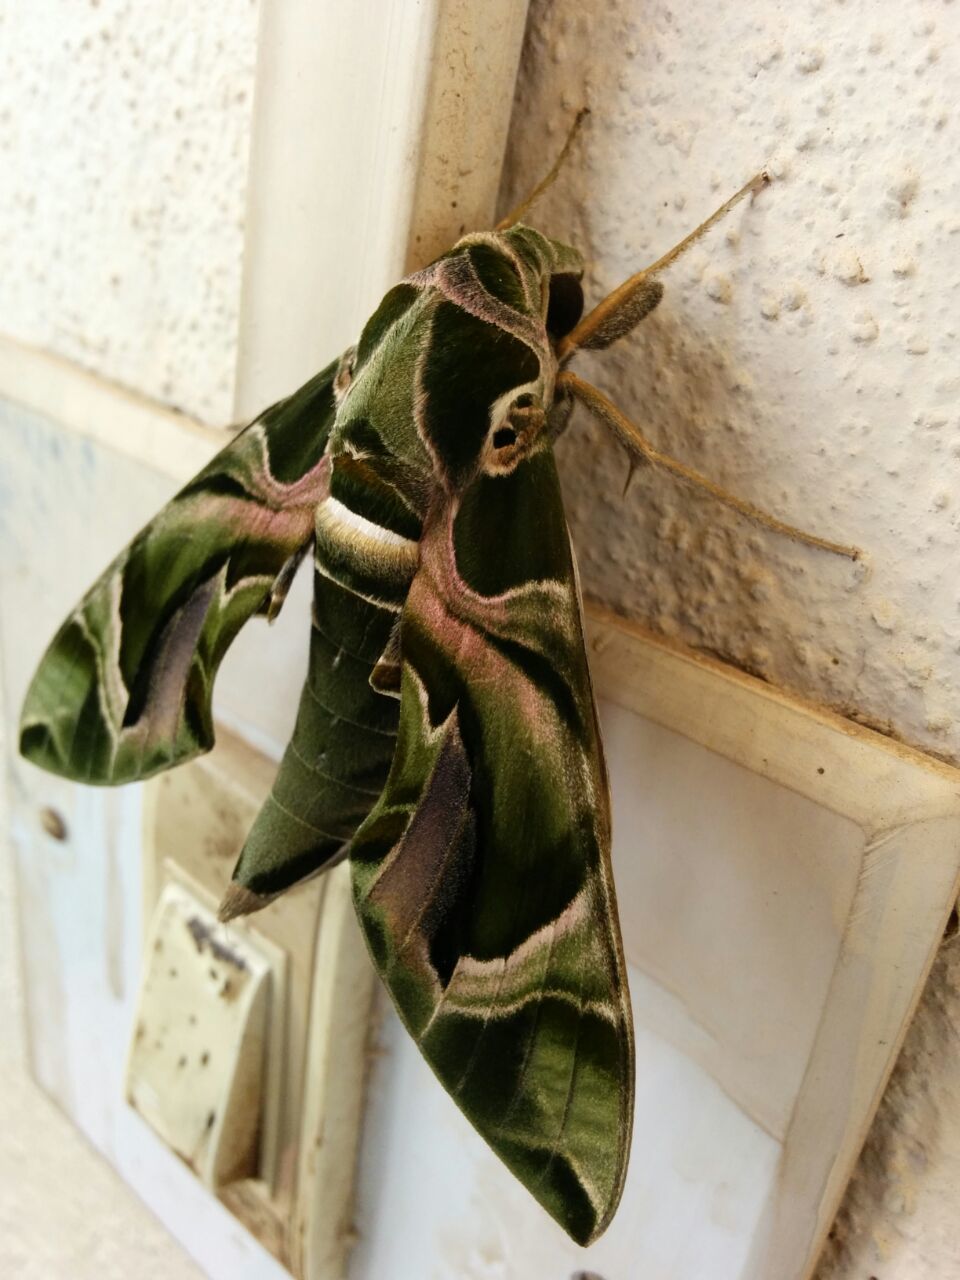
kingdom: Animalia
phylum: Arthropoda
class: Insecta
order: Lepidoptera
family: Sphingidae
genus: Daphnis
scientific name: Daphnis nerii
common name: Oleander hawk-moth
